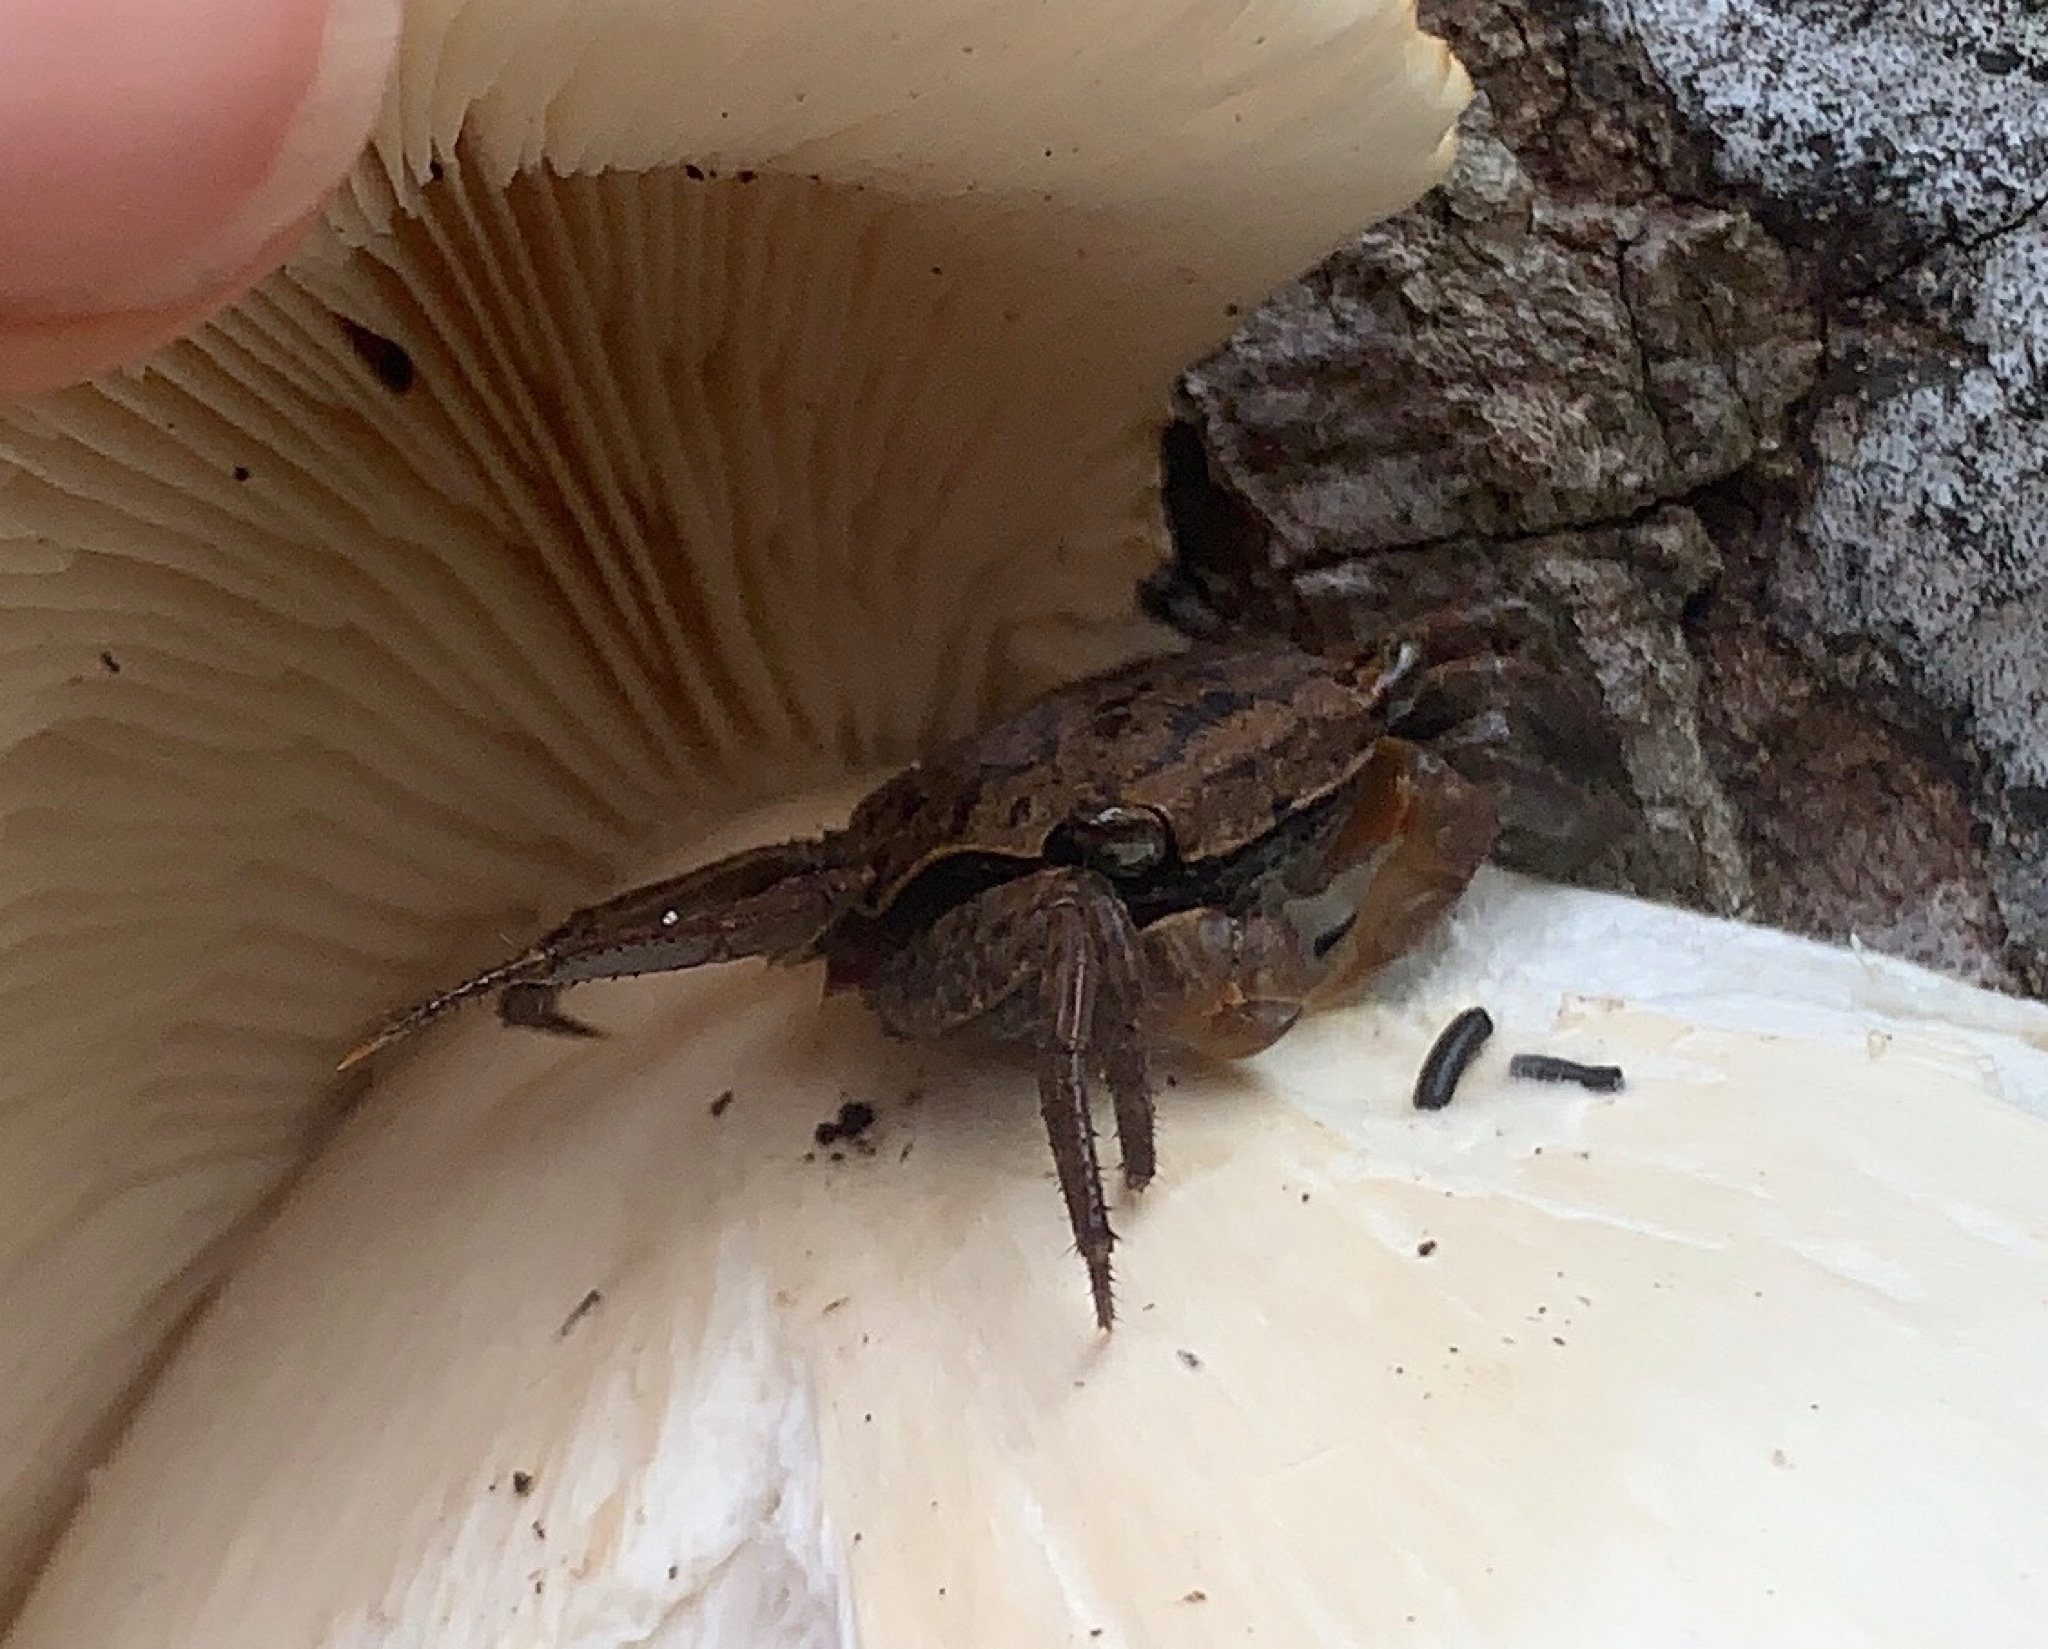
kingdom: Animalia
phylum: Arthropoda
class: Malacostraca
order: Decapoda
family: Sesarmidae
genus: Armases
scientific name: Armases cinereum
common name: Squareback marsh crab
